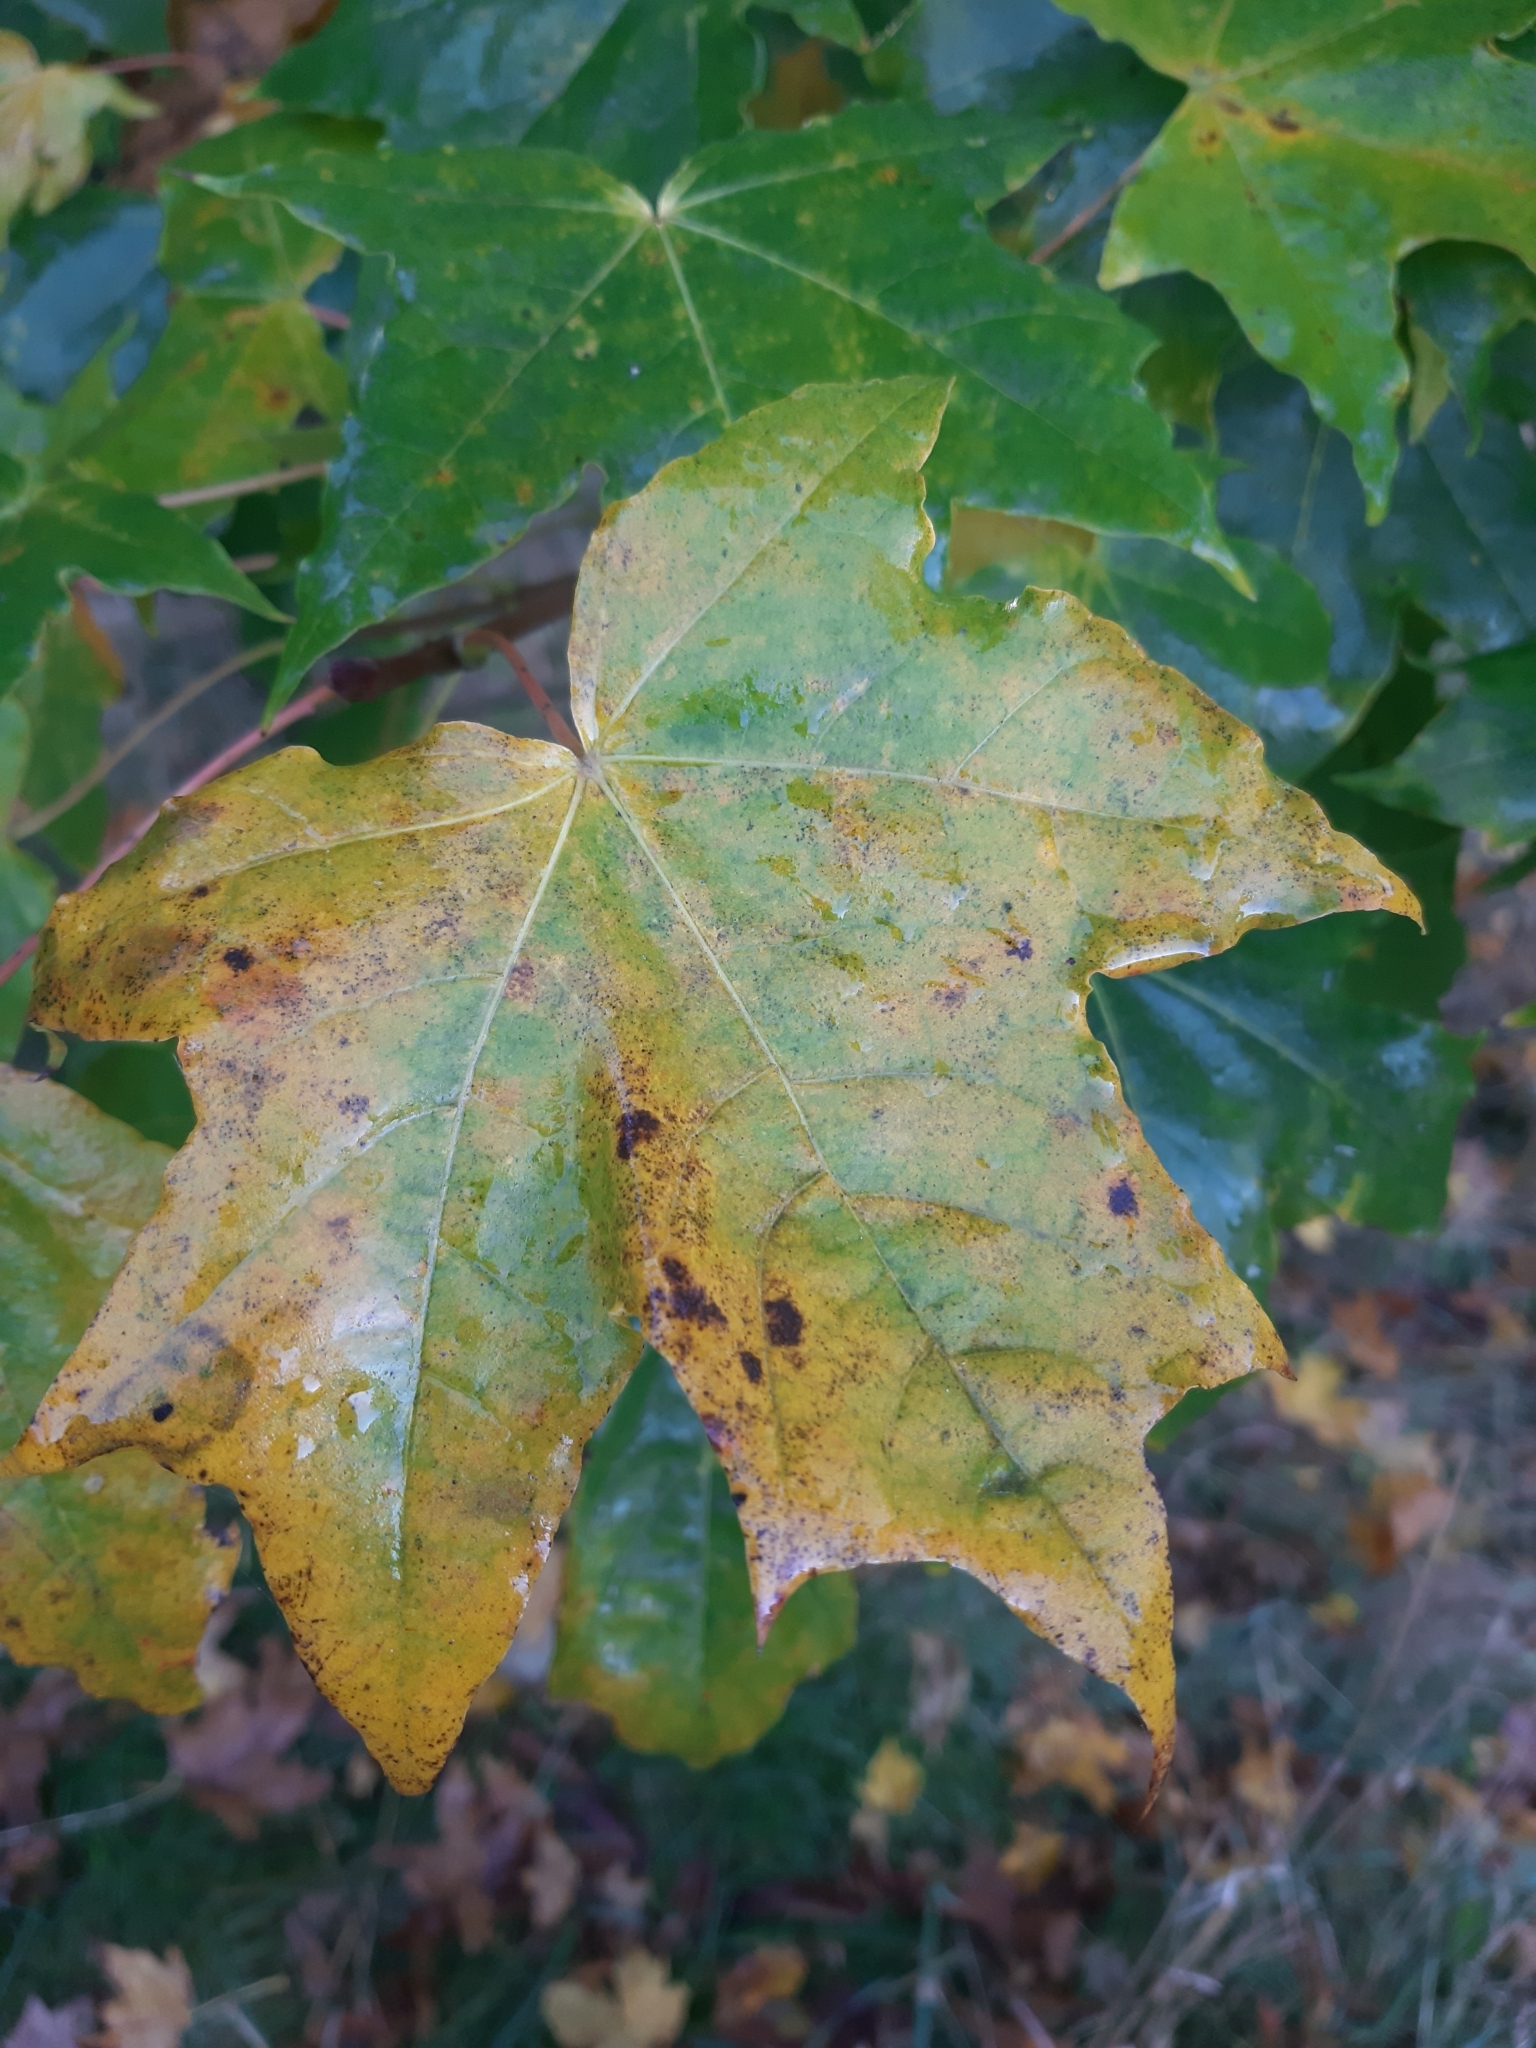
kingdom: Plantae
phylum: Tracheophyta
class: Magnoliopsida
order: Sapindales
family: Sapindaceae
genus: Acer
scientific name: Acer platanoides
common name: Norway maple
